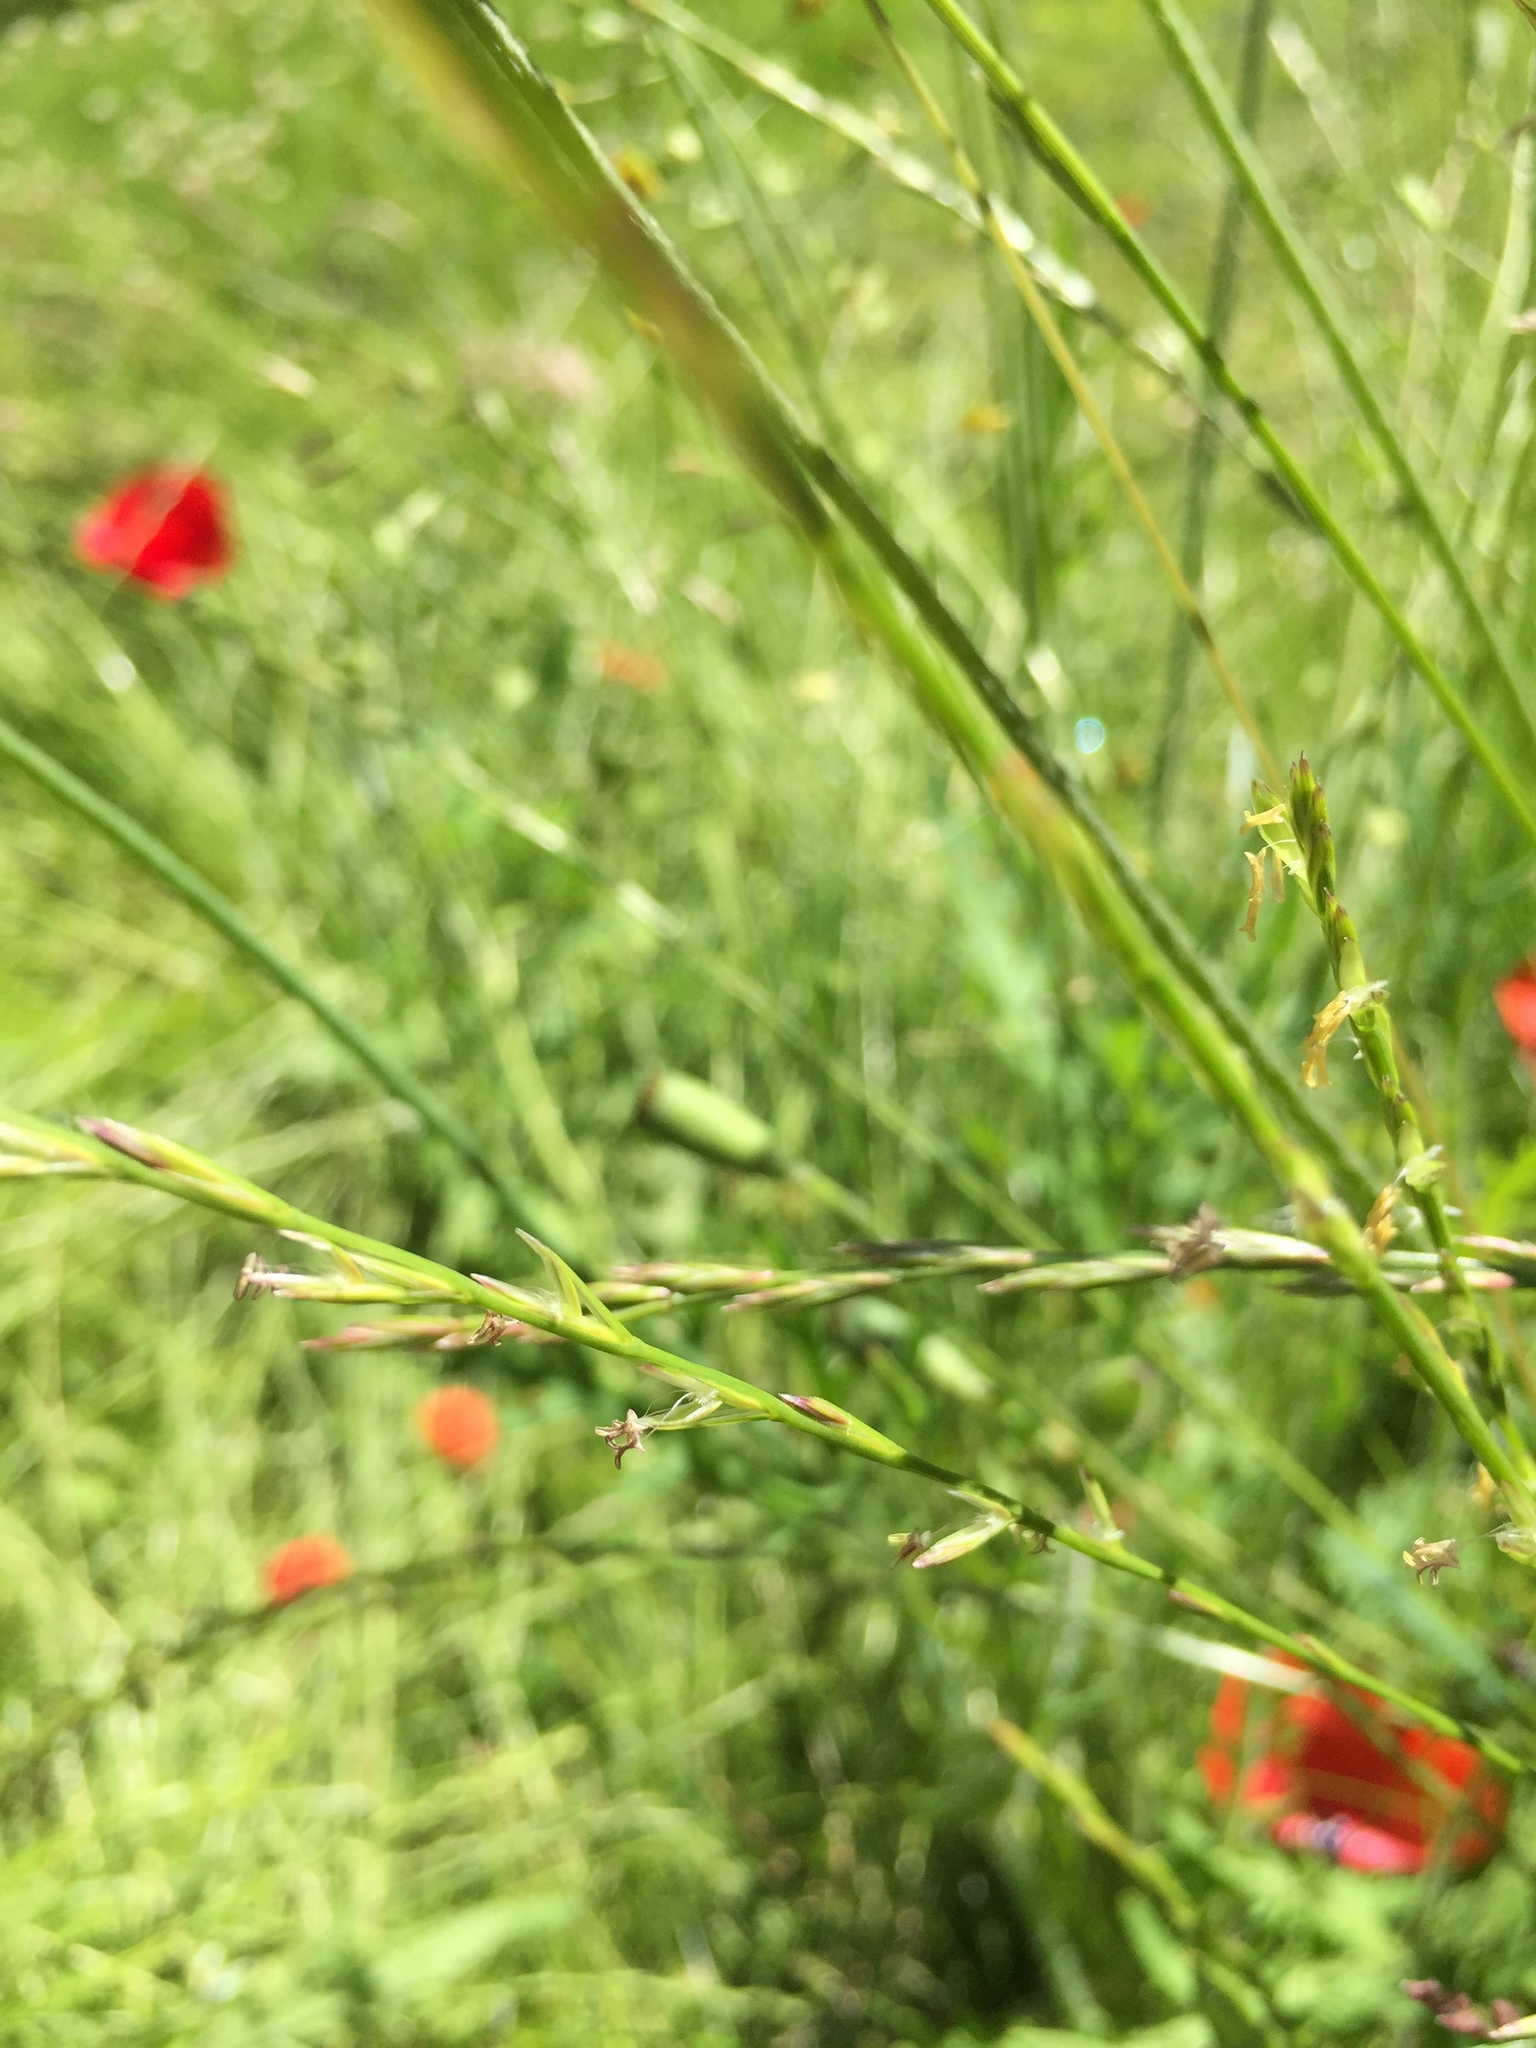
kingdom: Plantae
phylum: Tracheophyta
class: Liliopsida
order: Poales
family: Poaceae
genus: Lolium
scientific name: Lolium perenne
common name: Perennial ryegrass
